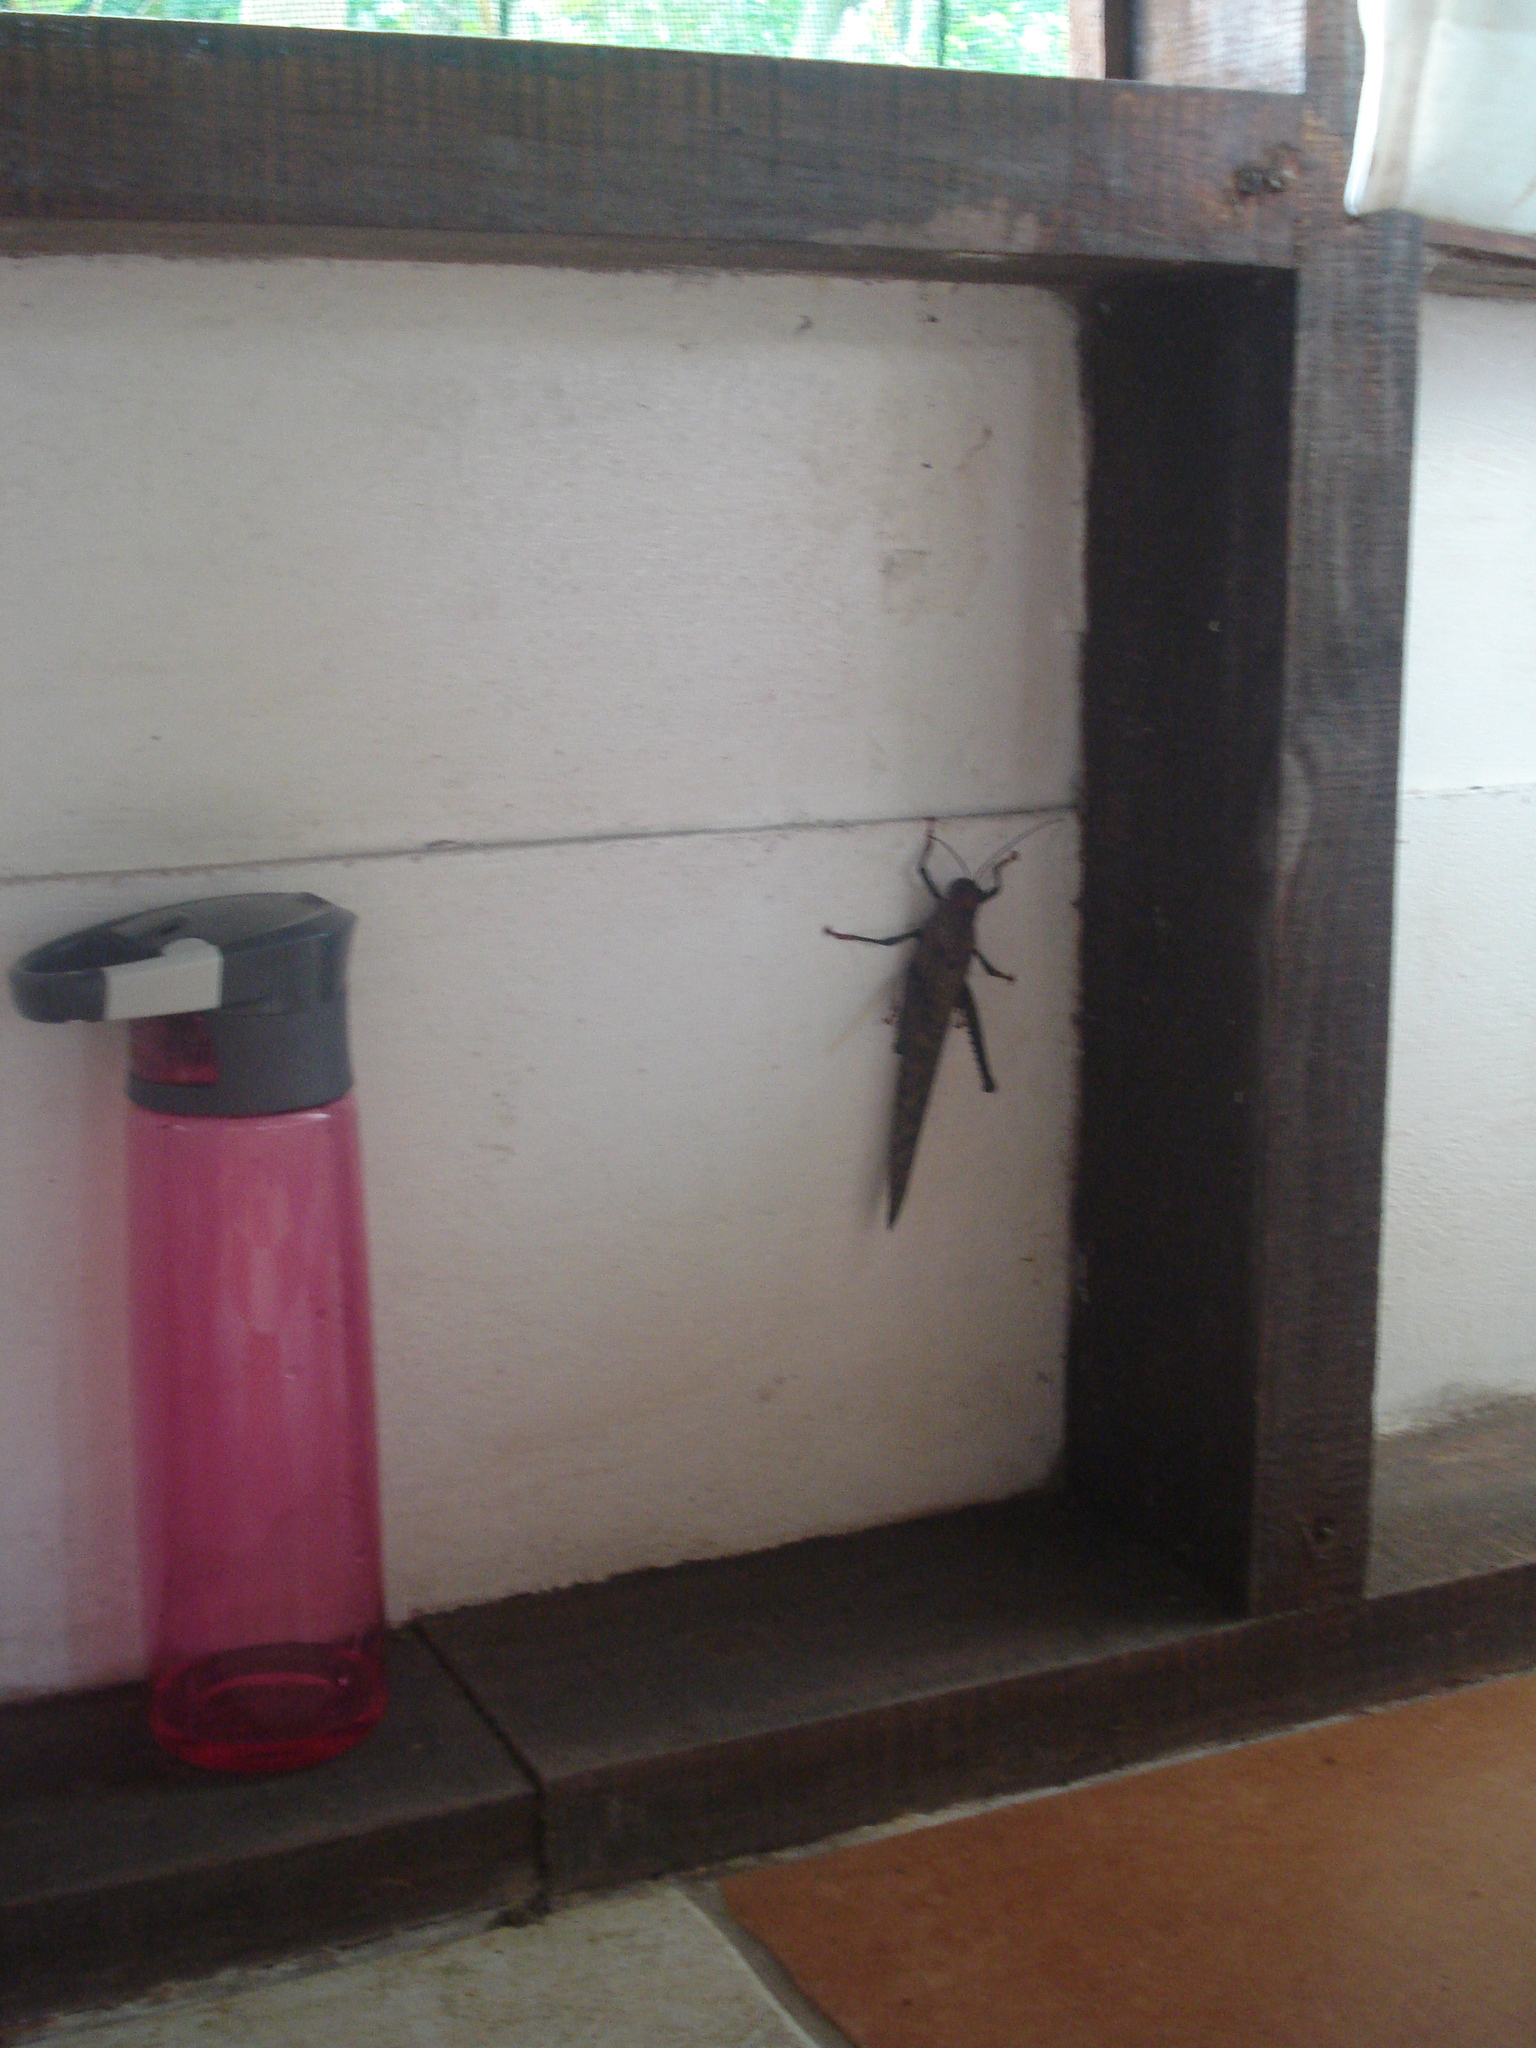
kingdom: Animalia
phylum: Arthropoda
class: Insecta
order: Orthoptera
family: Romaleidae
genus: Tropidacris
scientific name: Tropidacris cristata
